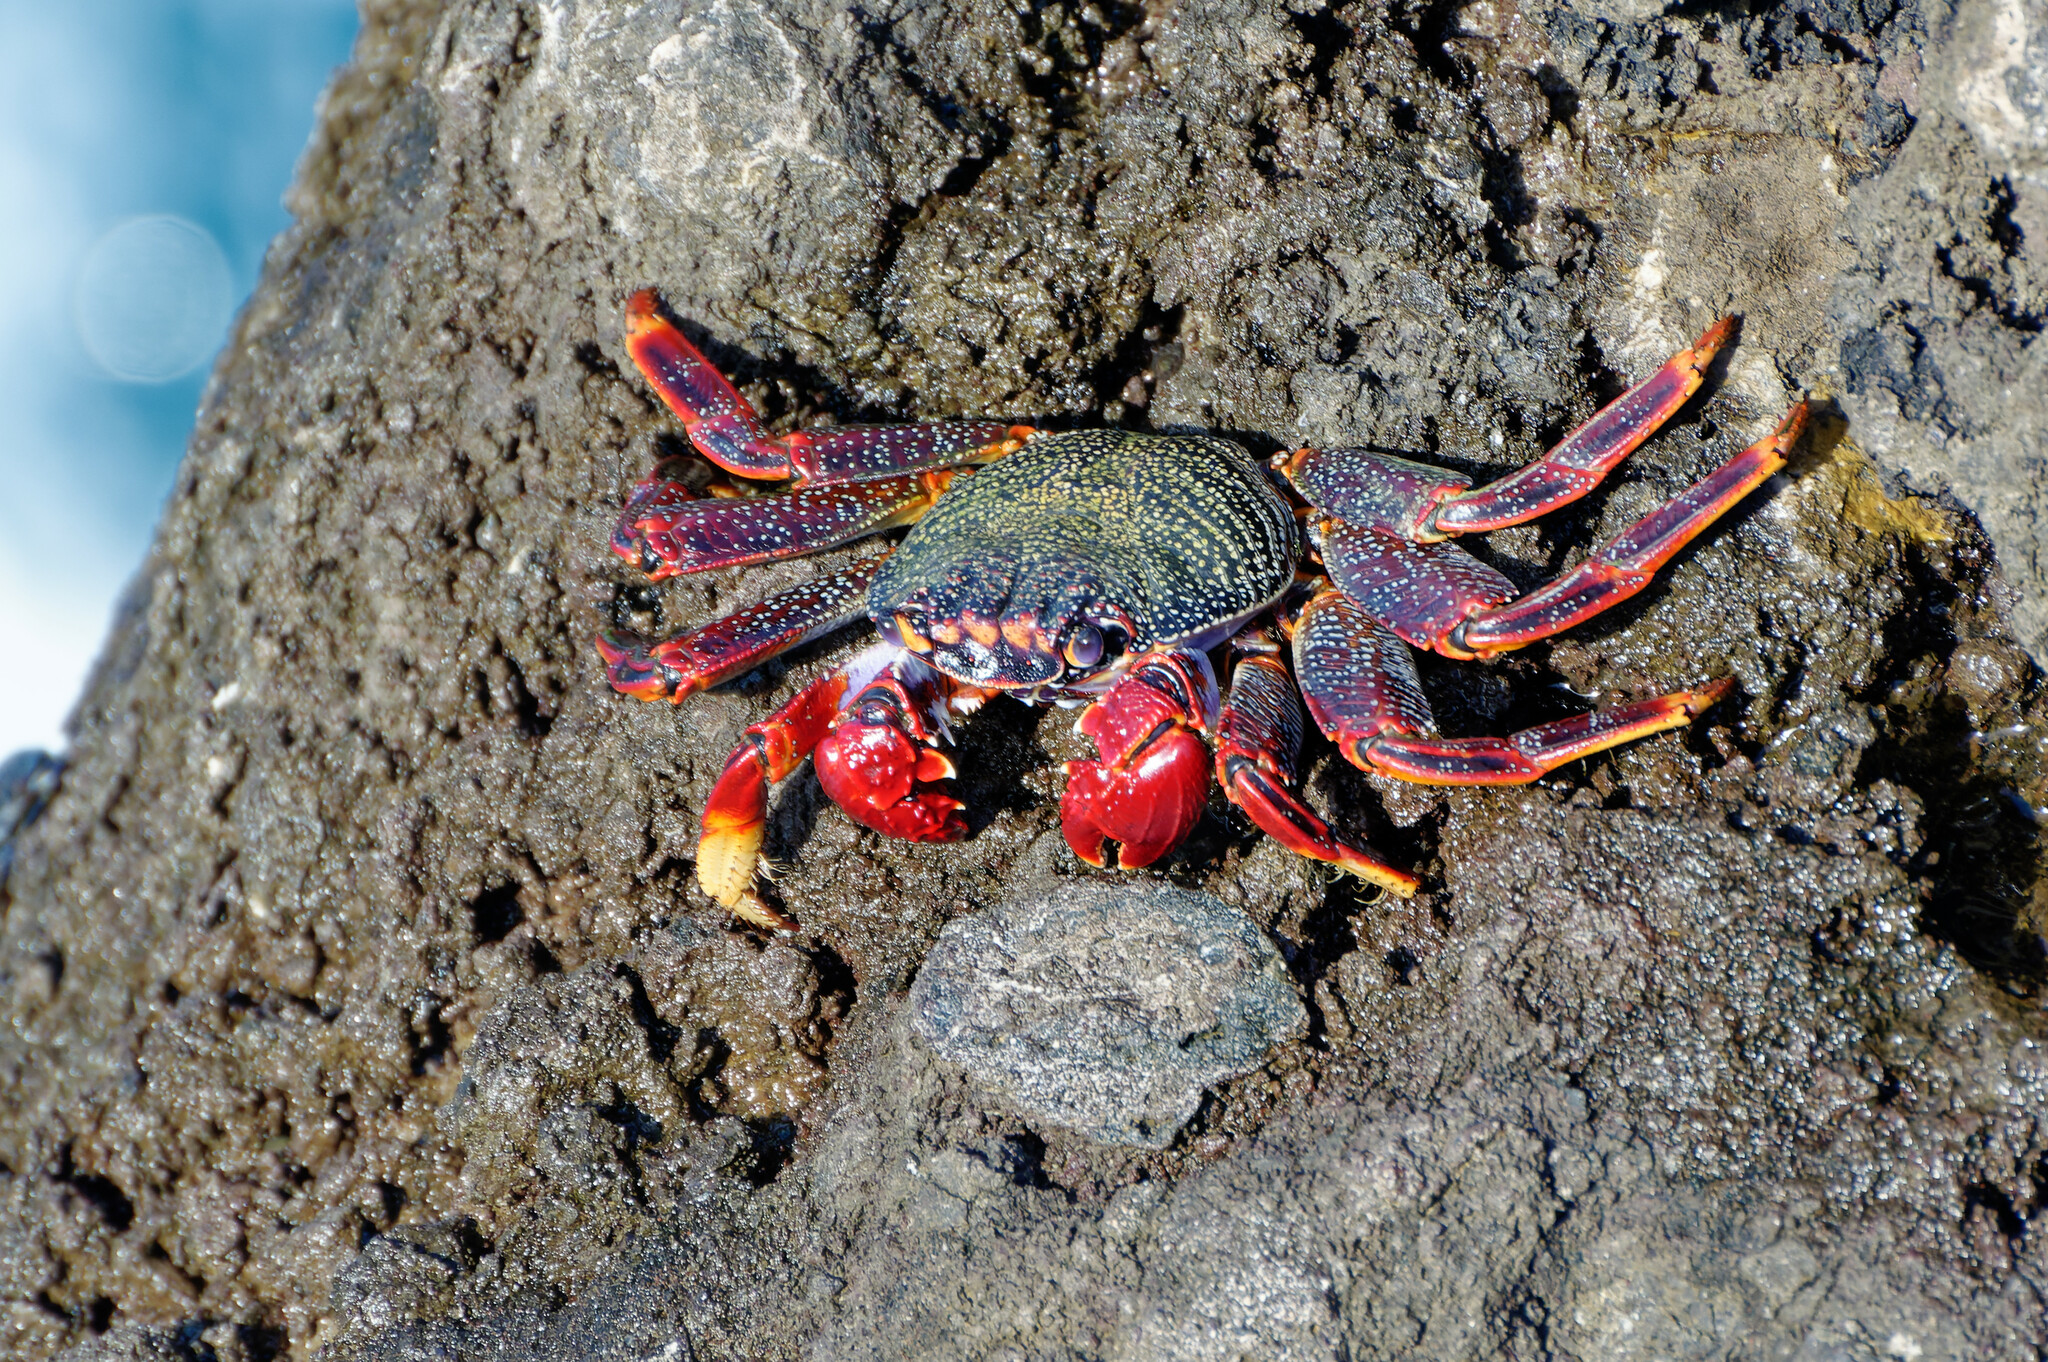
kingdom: Animalia
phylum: Arthropoda
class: Malacostraca
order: Decapoda
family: Grapsidae
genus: Grapsus
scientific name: Grapsus adscensionis
